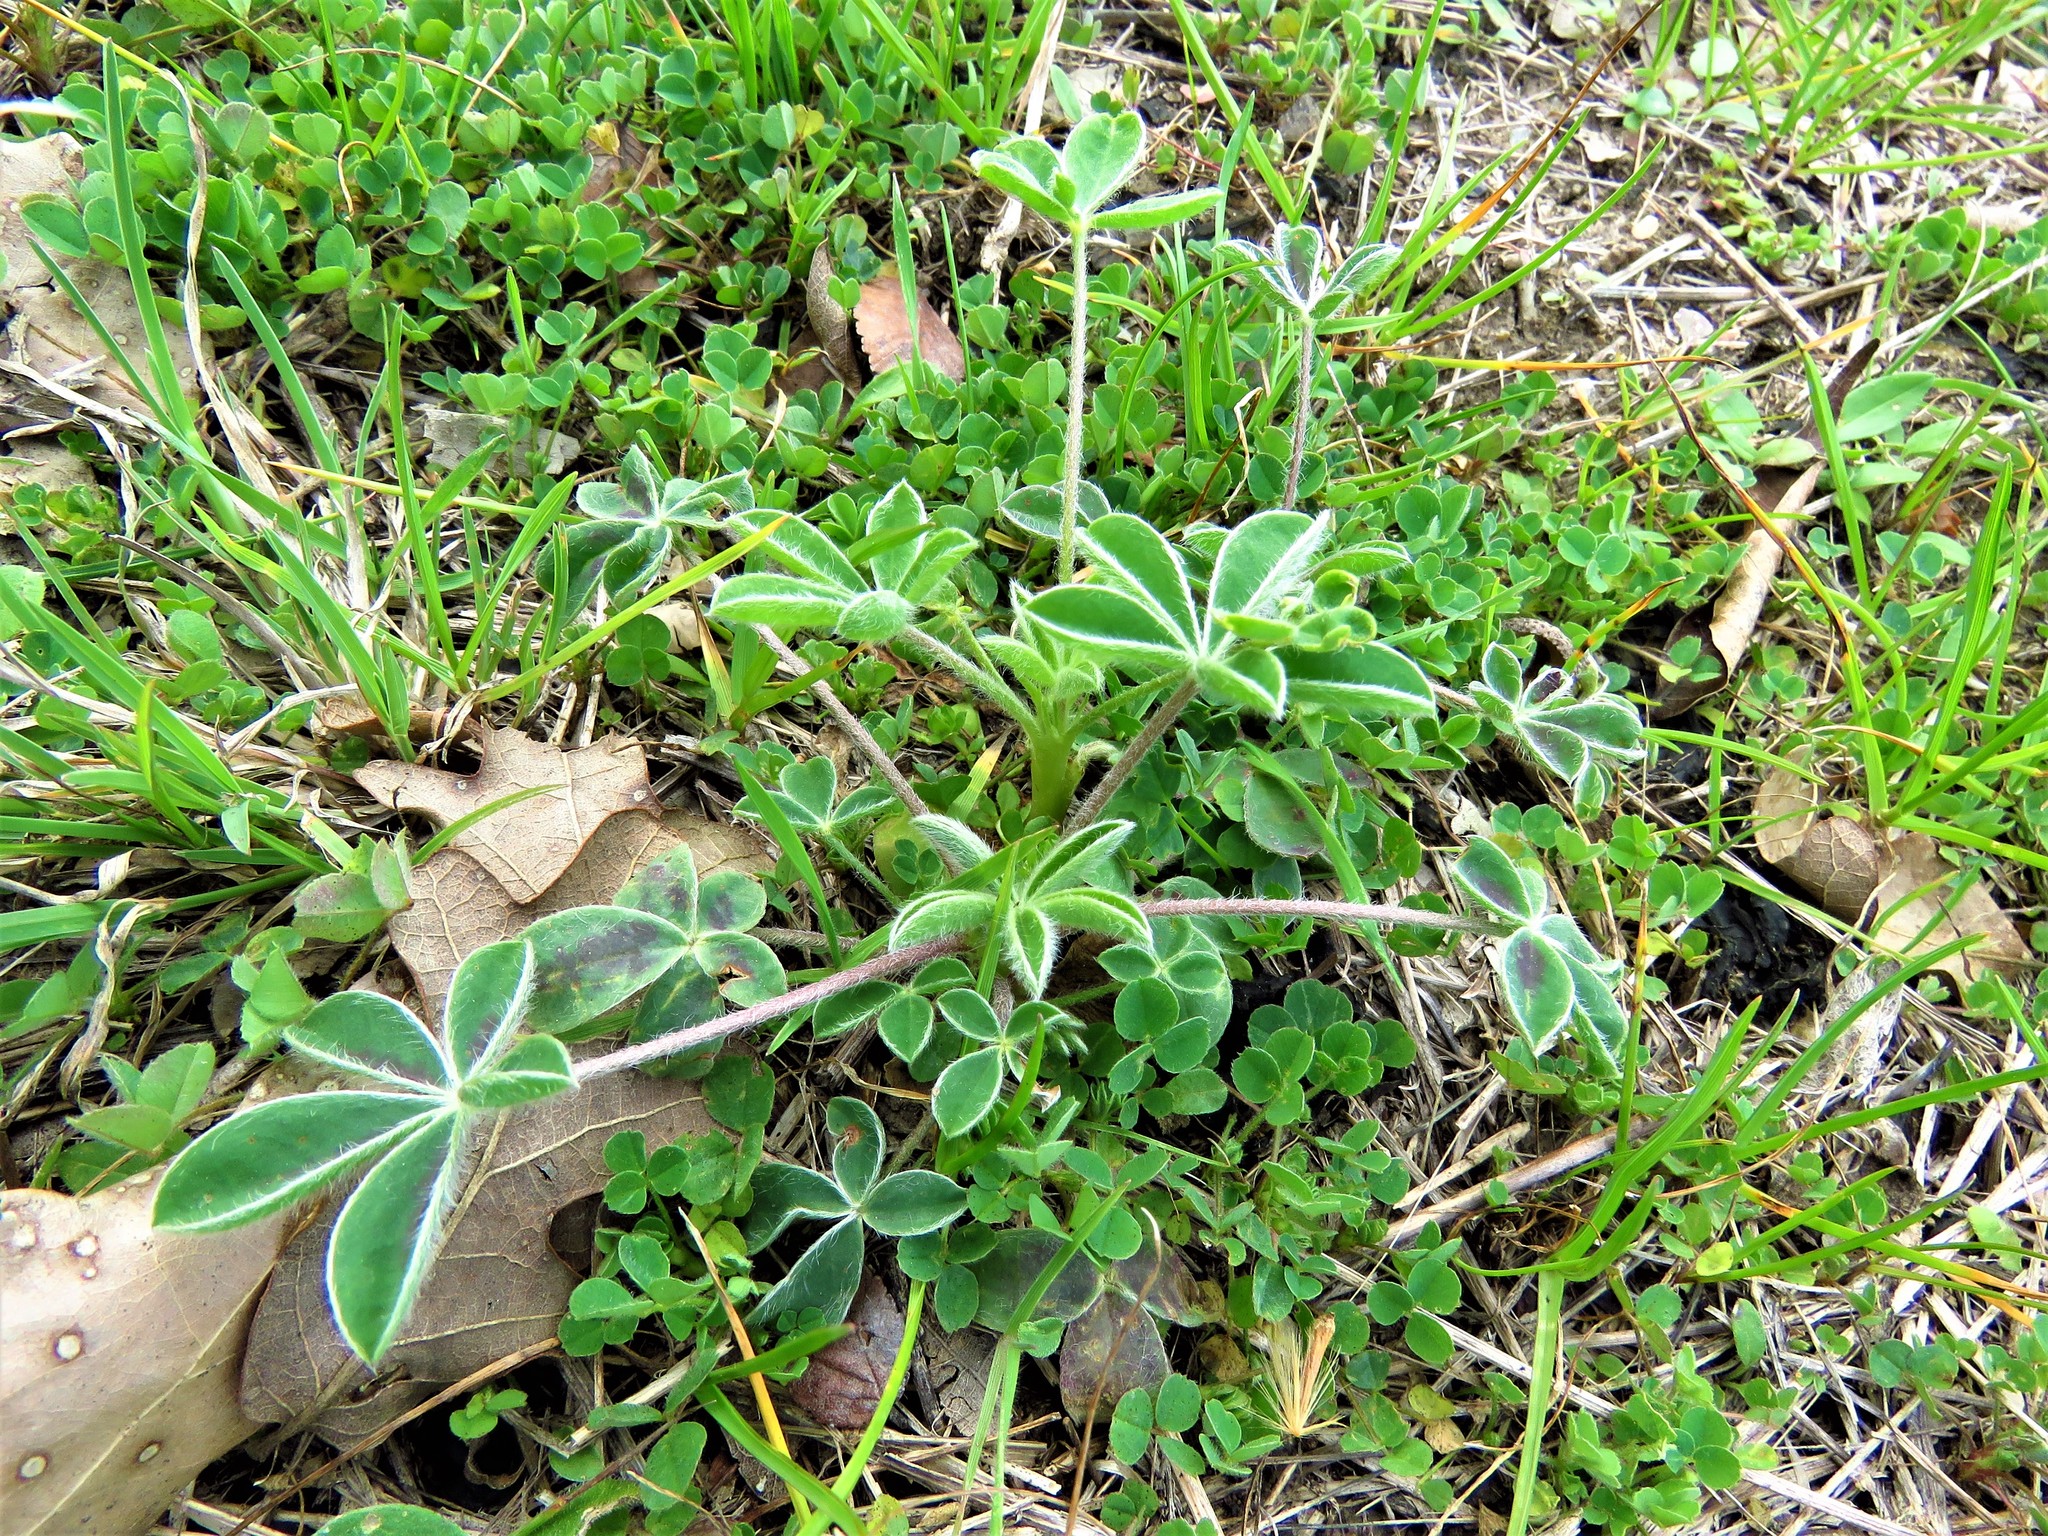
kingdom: Plantae
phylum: Tracheophyta
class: Magnoliopsida
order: Fabales
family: Fabaceae
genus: Lupinus
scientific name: Lupinus texensis
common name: Texas bluebonnet
